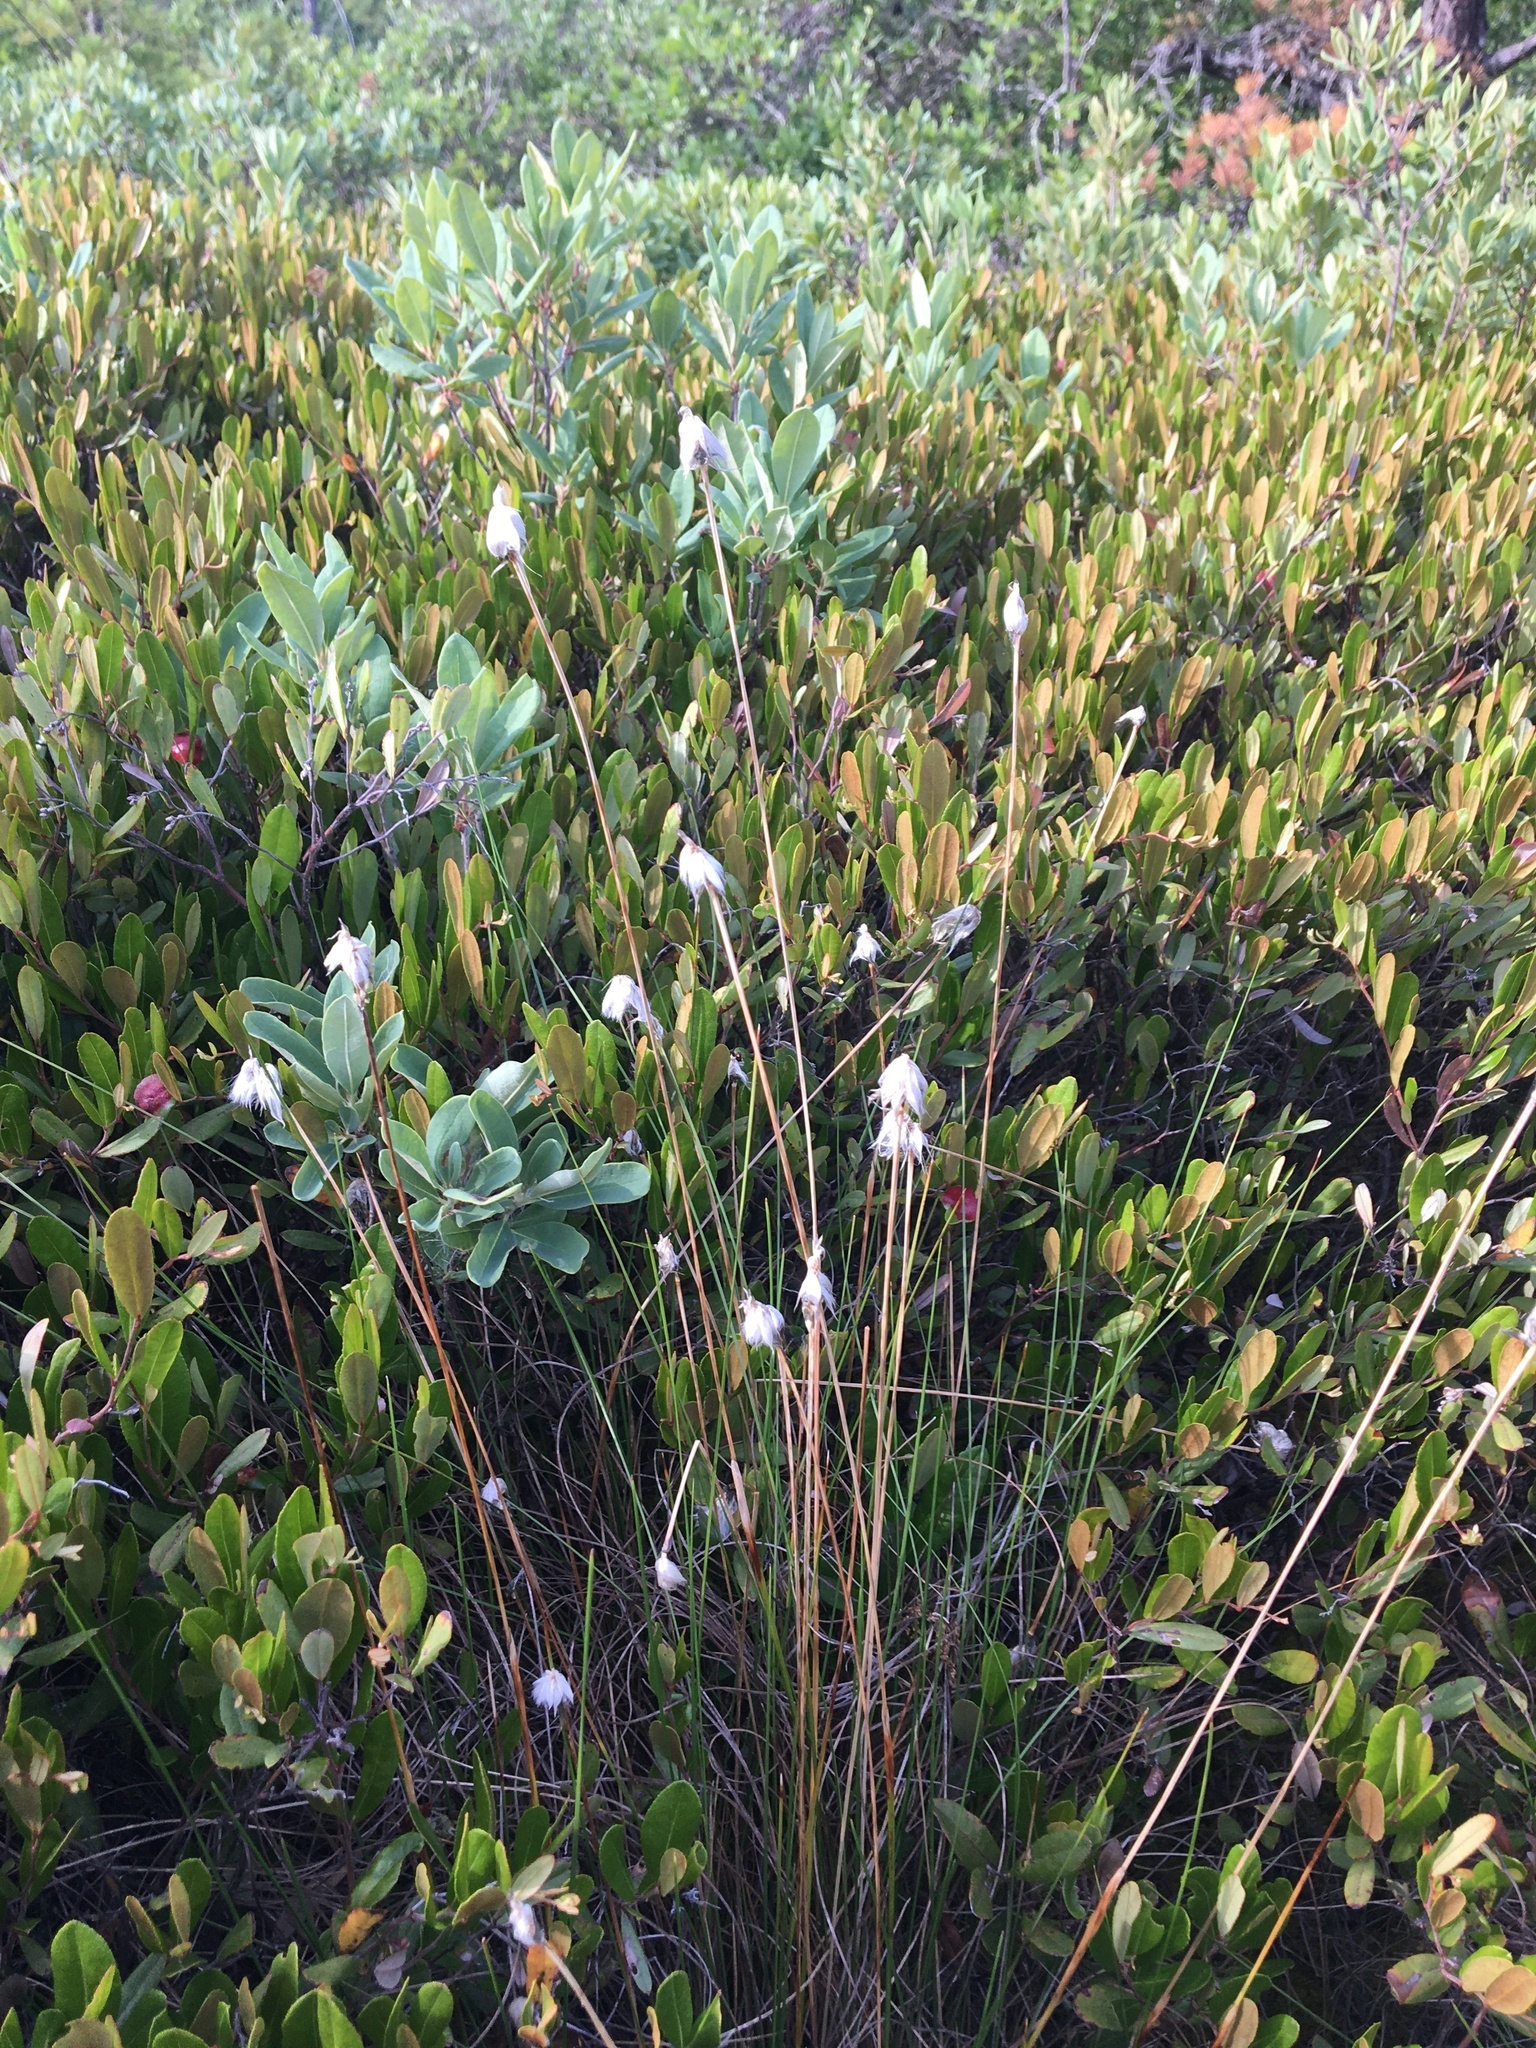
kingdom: Plantae
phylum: Tracheophyta
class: Magnoliopsida
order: Ericales
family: Ericaceae
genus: Rhododendron
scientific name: Rhododendron canadense
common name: Rhodora
